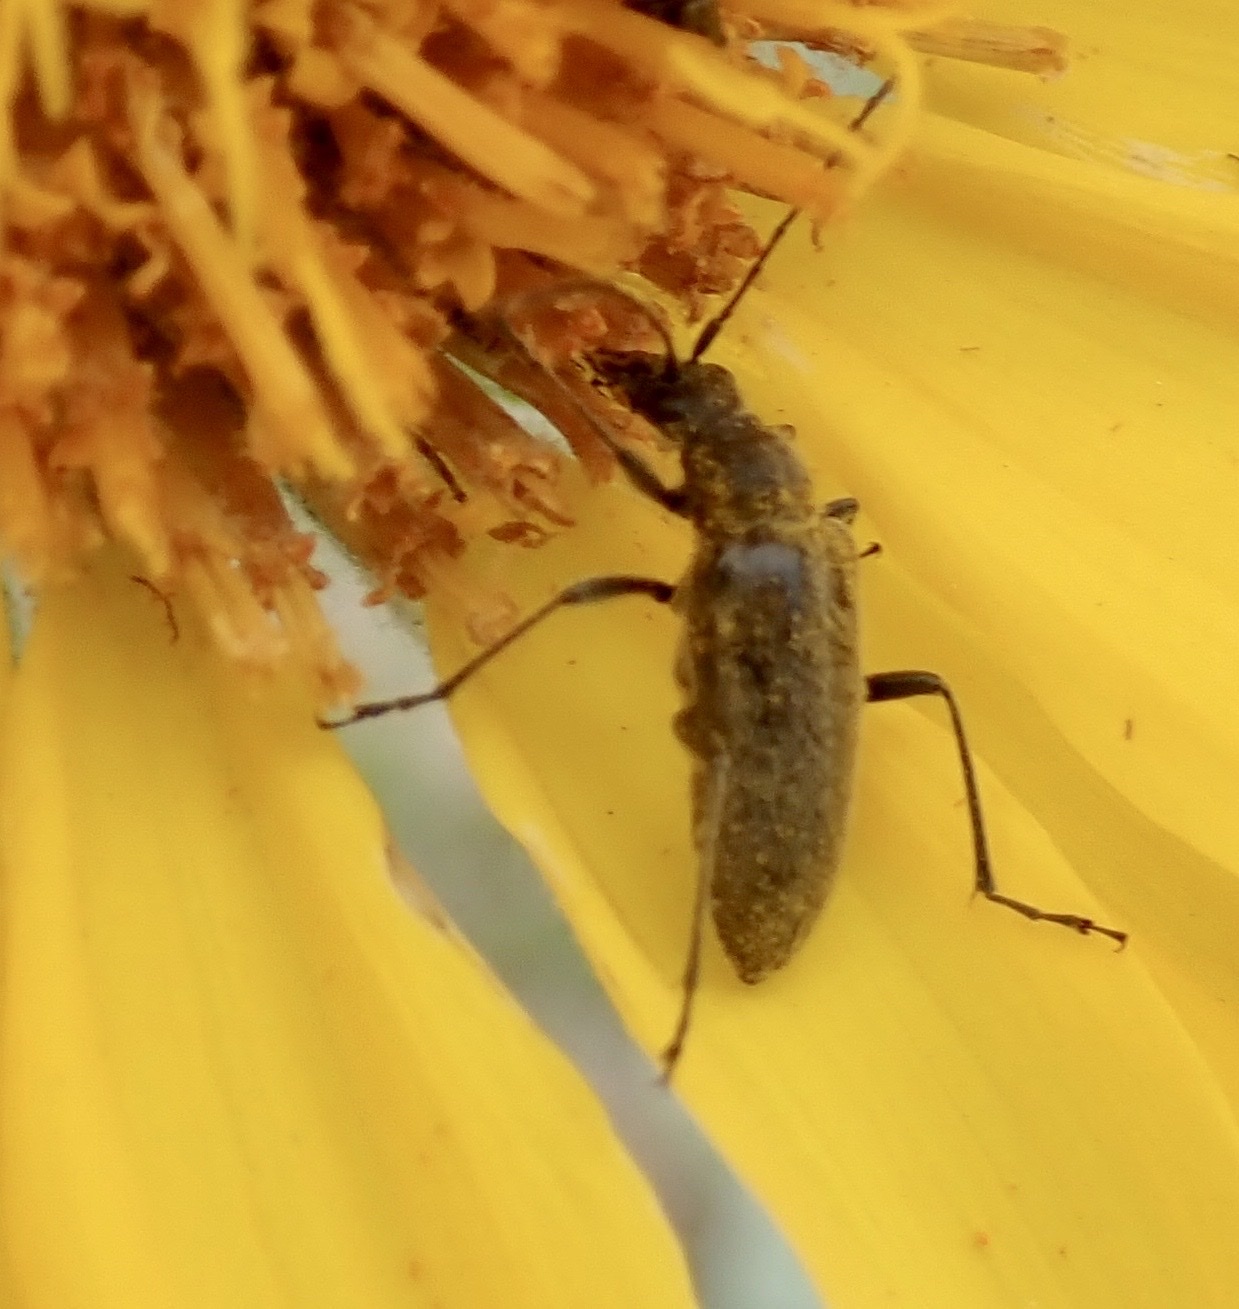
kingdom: Animalia
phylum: Arthropoda
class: Insecta
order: Coleoptera
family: Cerambycidae
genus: Cortodera
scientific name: Cortodera subpilosa
